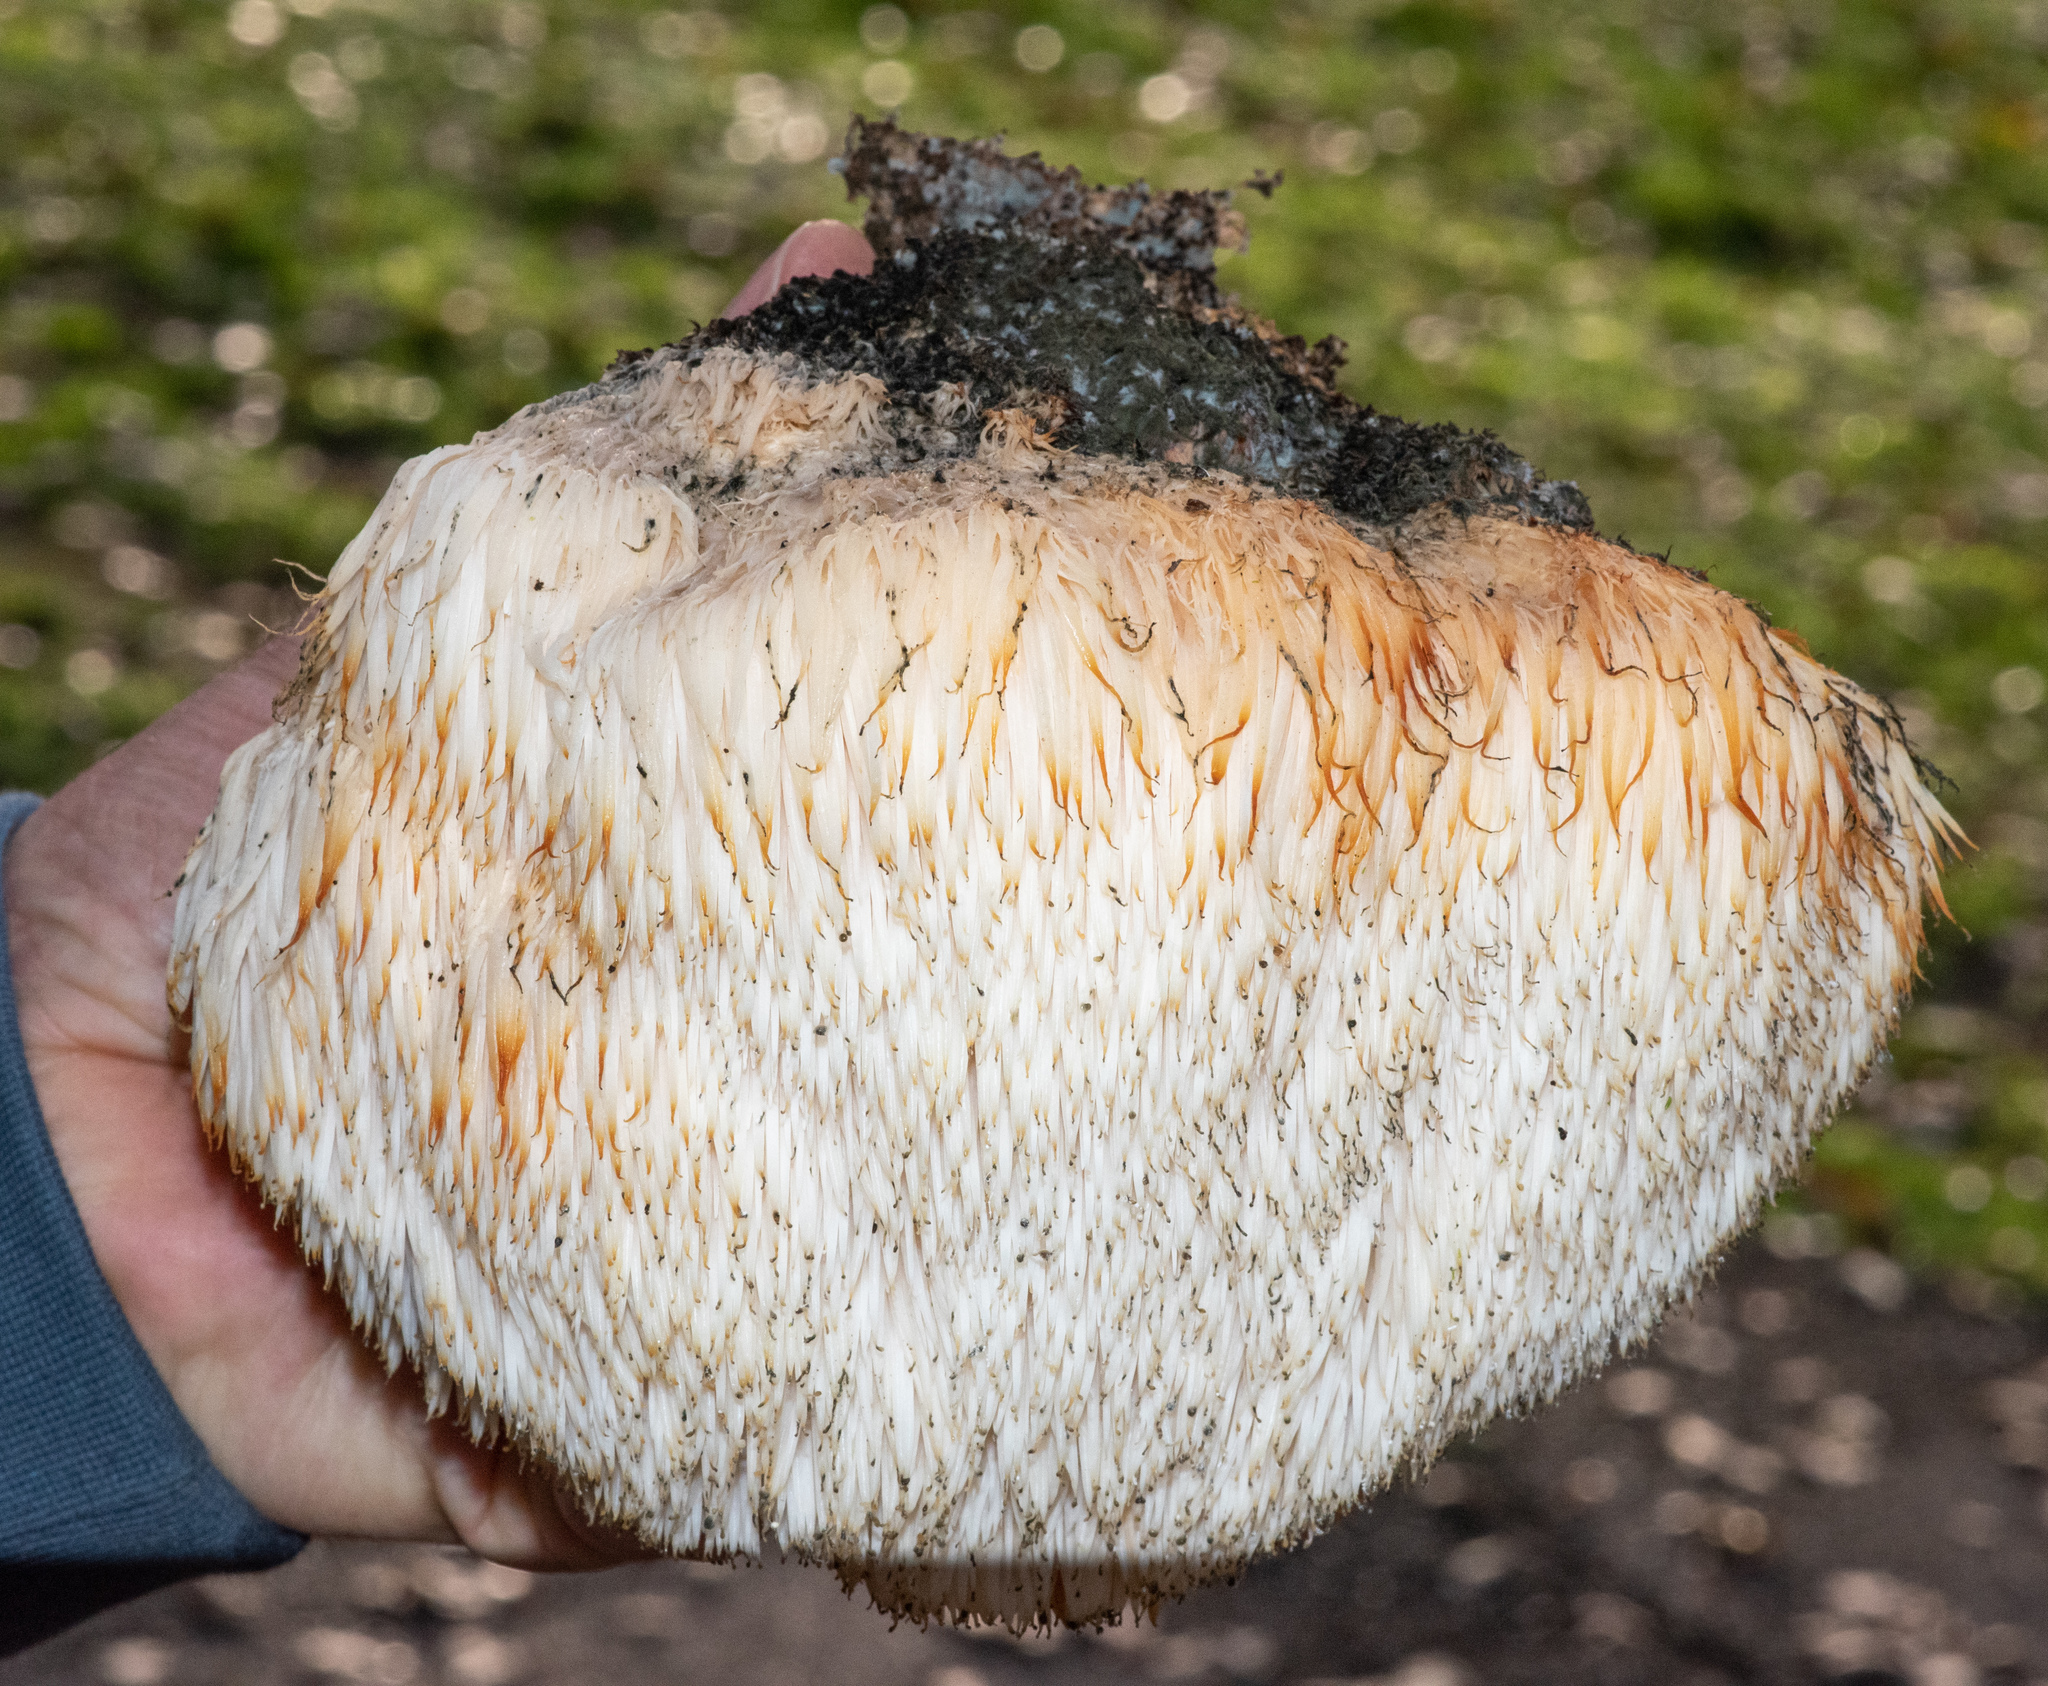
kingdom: Fungi
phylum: Basidiomycota
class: Agaricomycetes
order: Russulales
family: Hericiaceae
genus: Hericium
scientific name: Hericium erinaceus
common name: Bearded tooth
